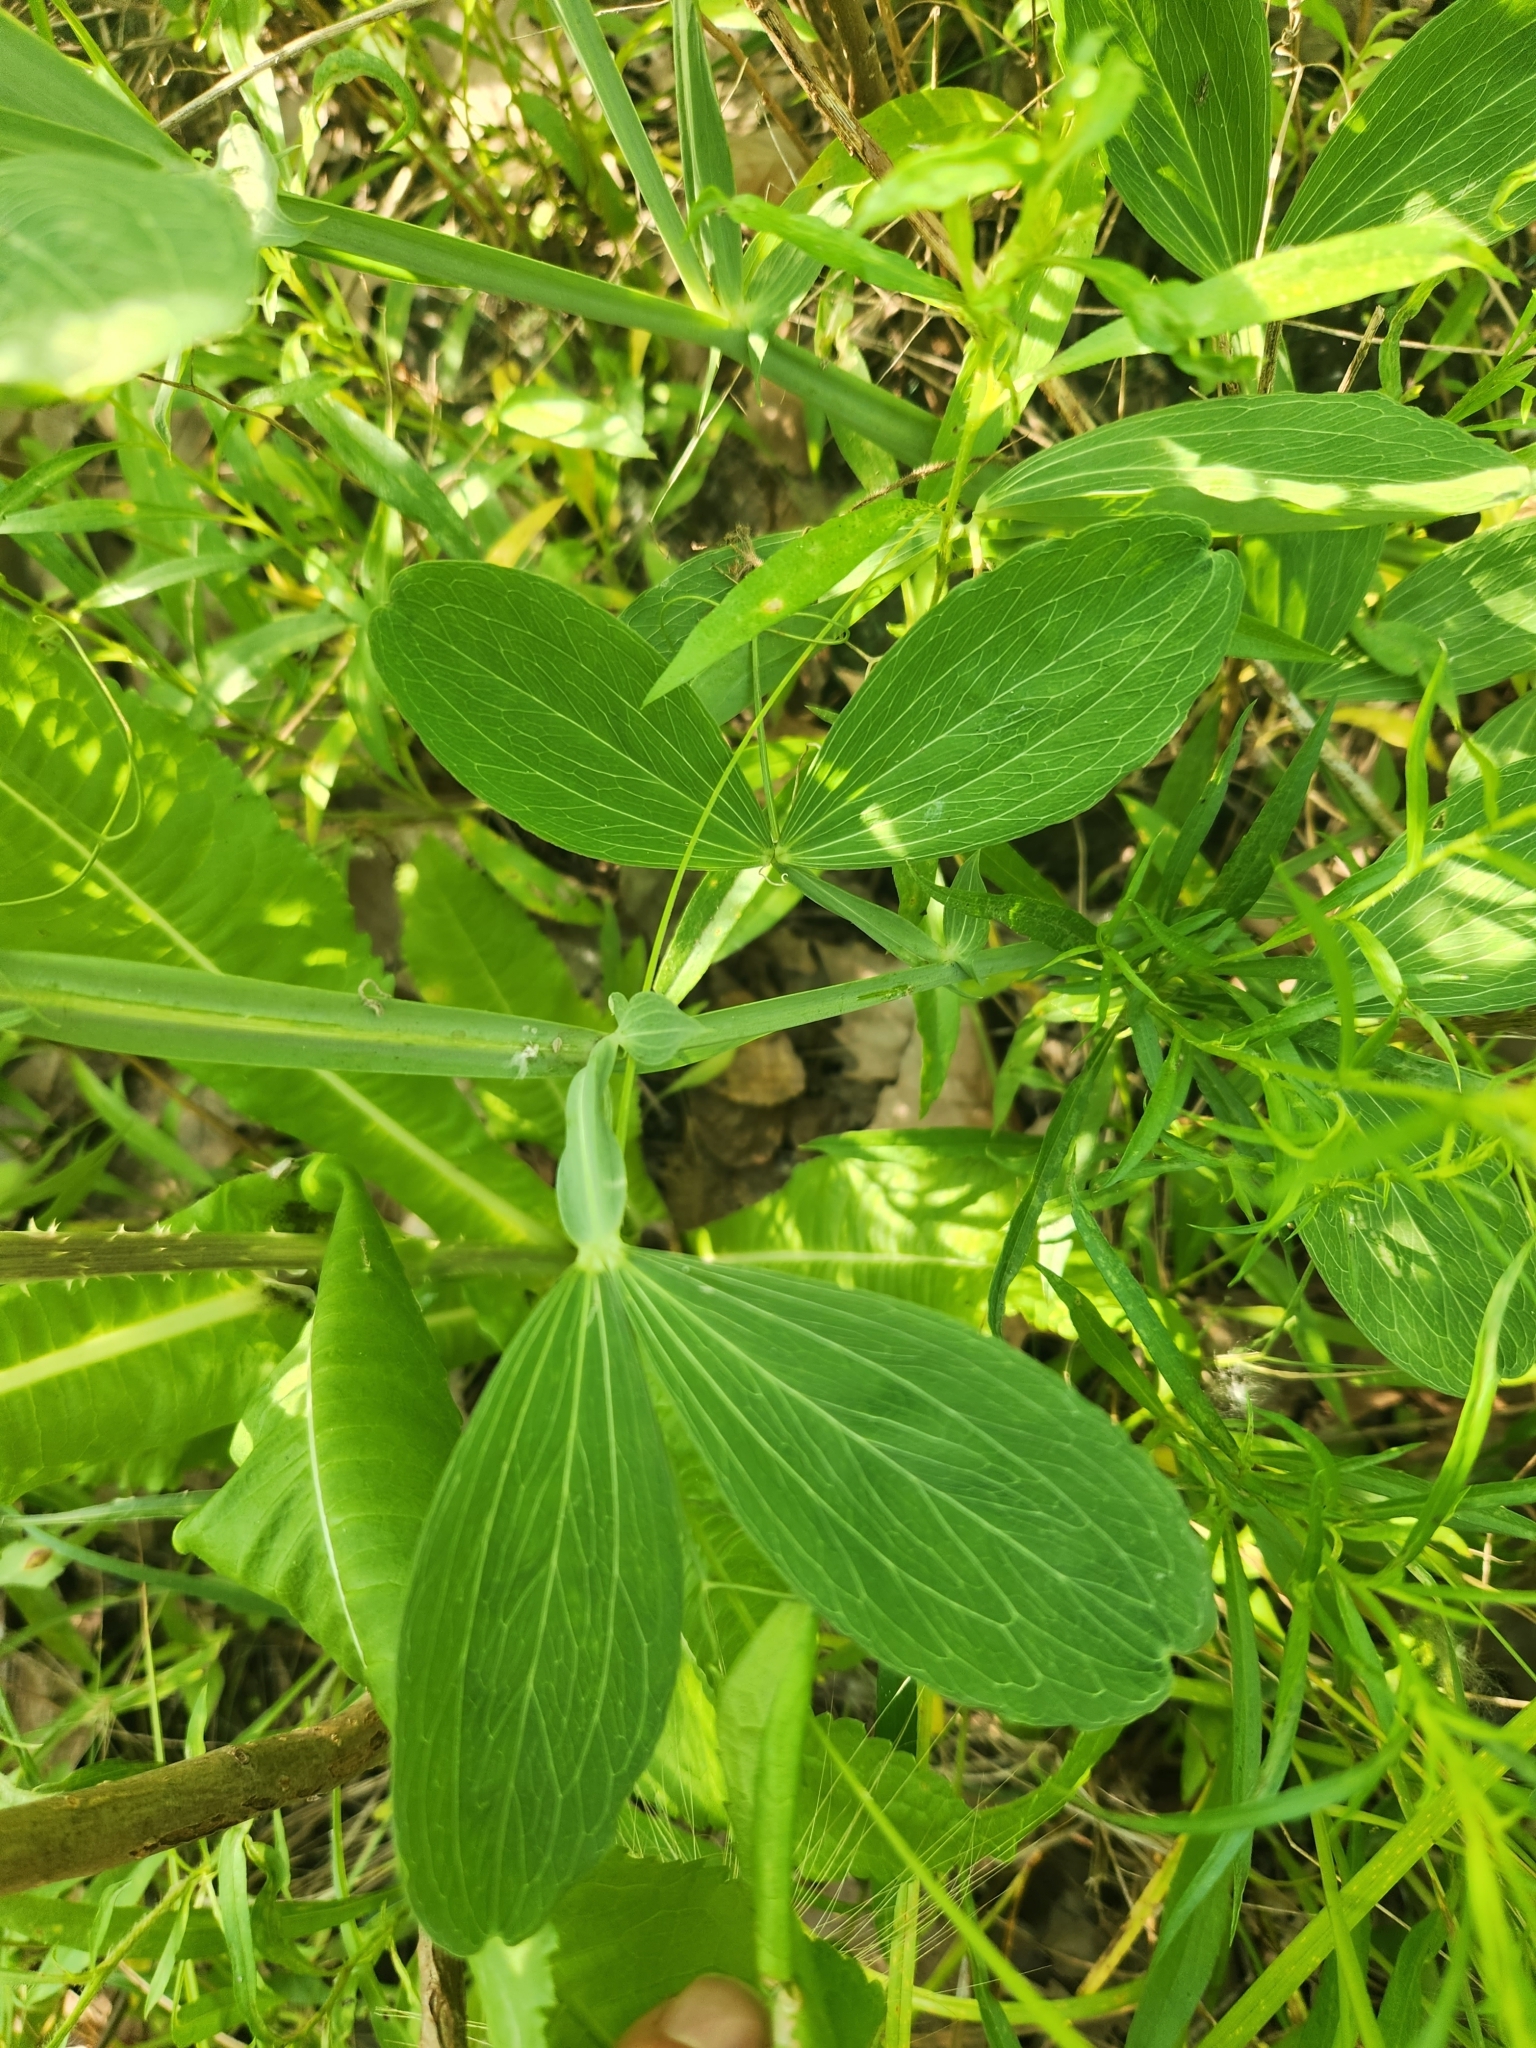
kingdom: Plantae
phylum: Tracheophyta
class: Magnoliopsida
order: Fabales
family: Fabaceae
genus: Lathyrus
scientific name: Lathyrus latifolius
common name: Perennial pea
